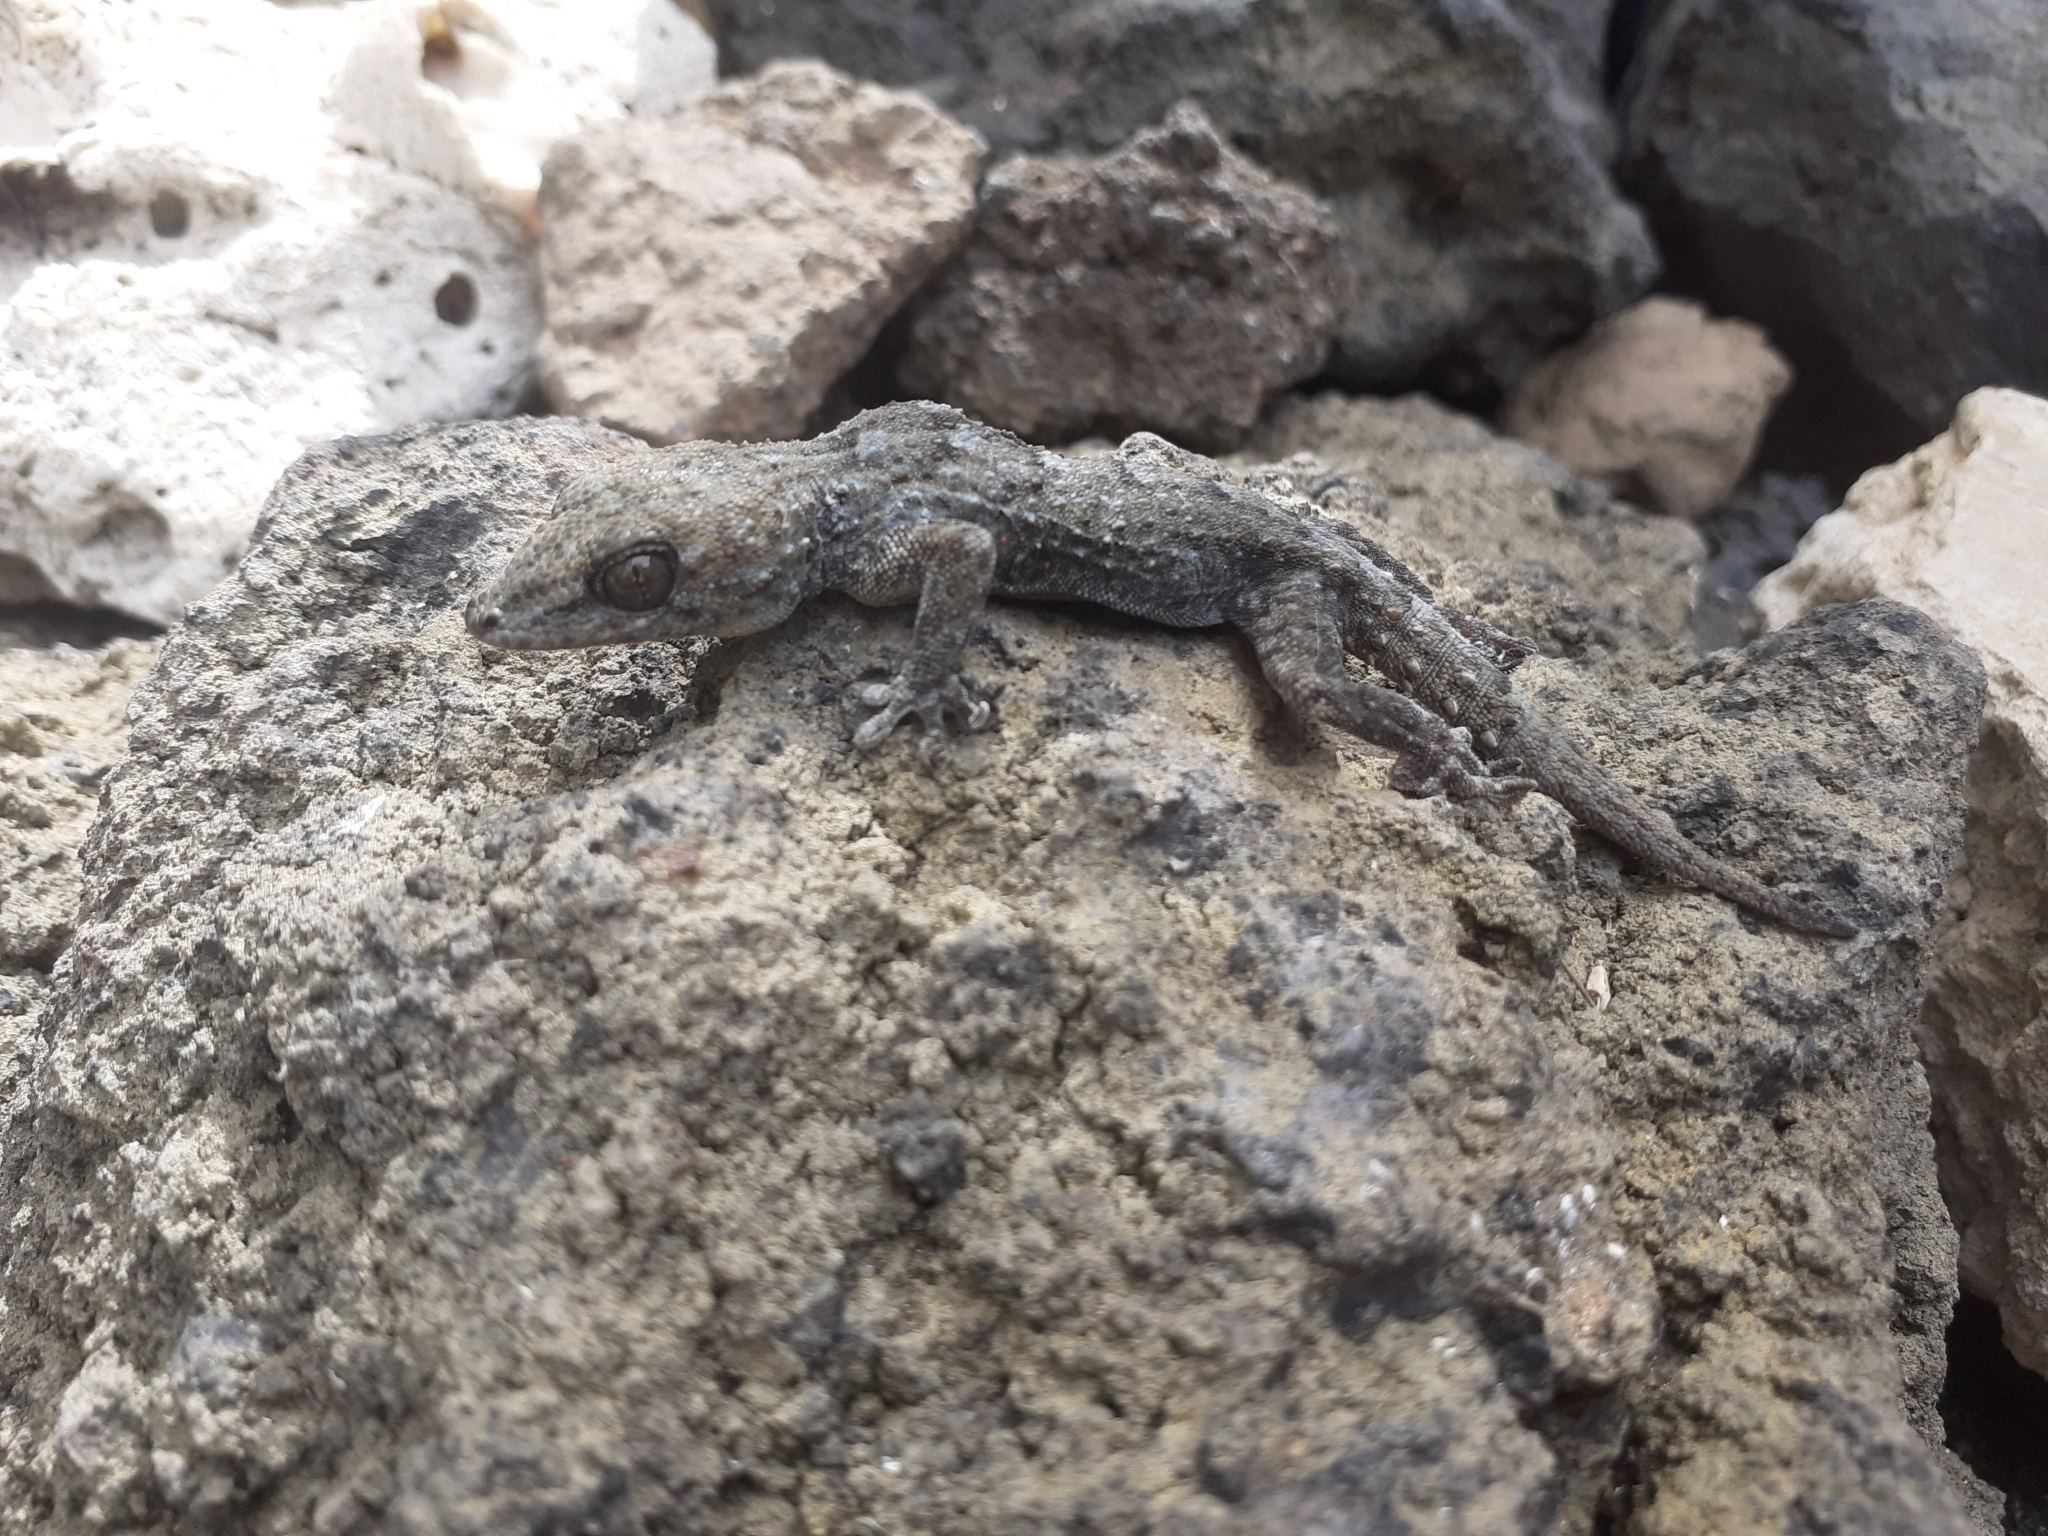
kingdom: Animalia
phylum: Chordata
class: Squamata
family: Phyllodactylidae
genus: Tarentola
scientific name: Tarentola delalandii
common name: Tenerife wall gecko
